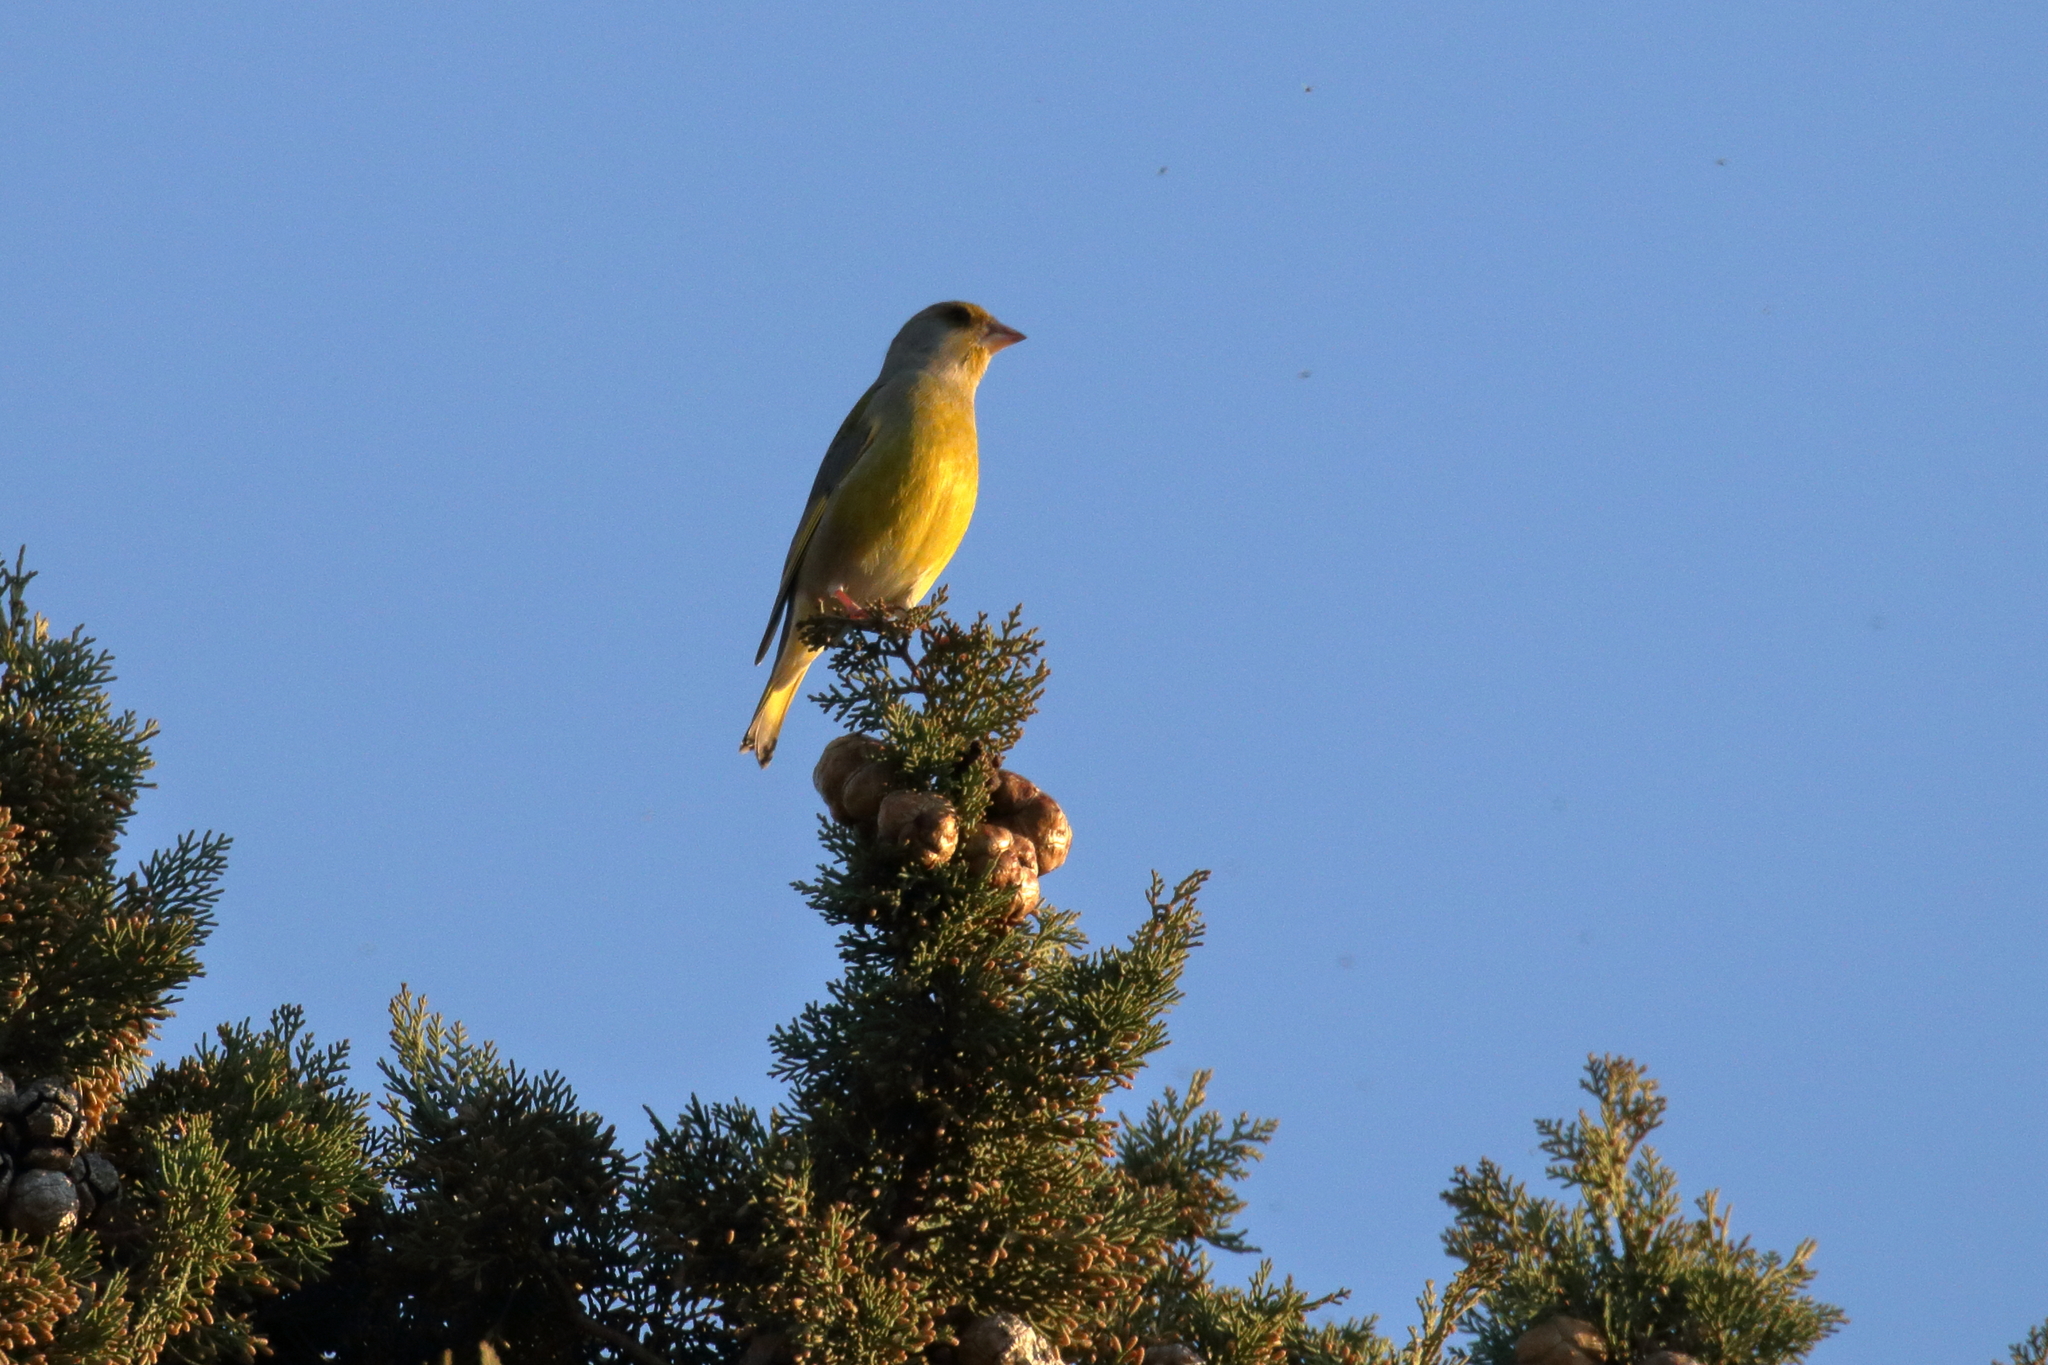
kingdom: Plantae
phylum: Tracheophyta
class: Liliopsida
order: Poales
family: Poaceae
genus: Chloris
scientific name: Chloris chloris
